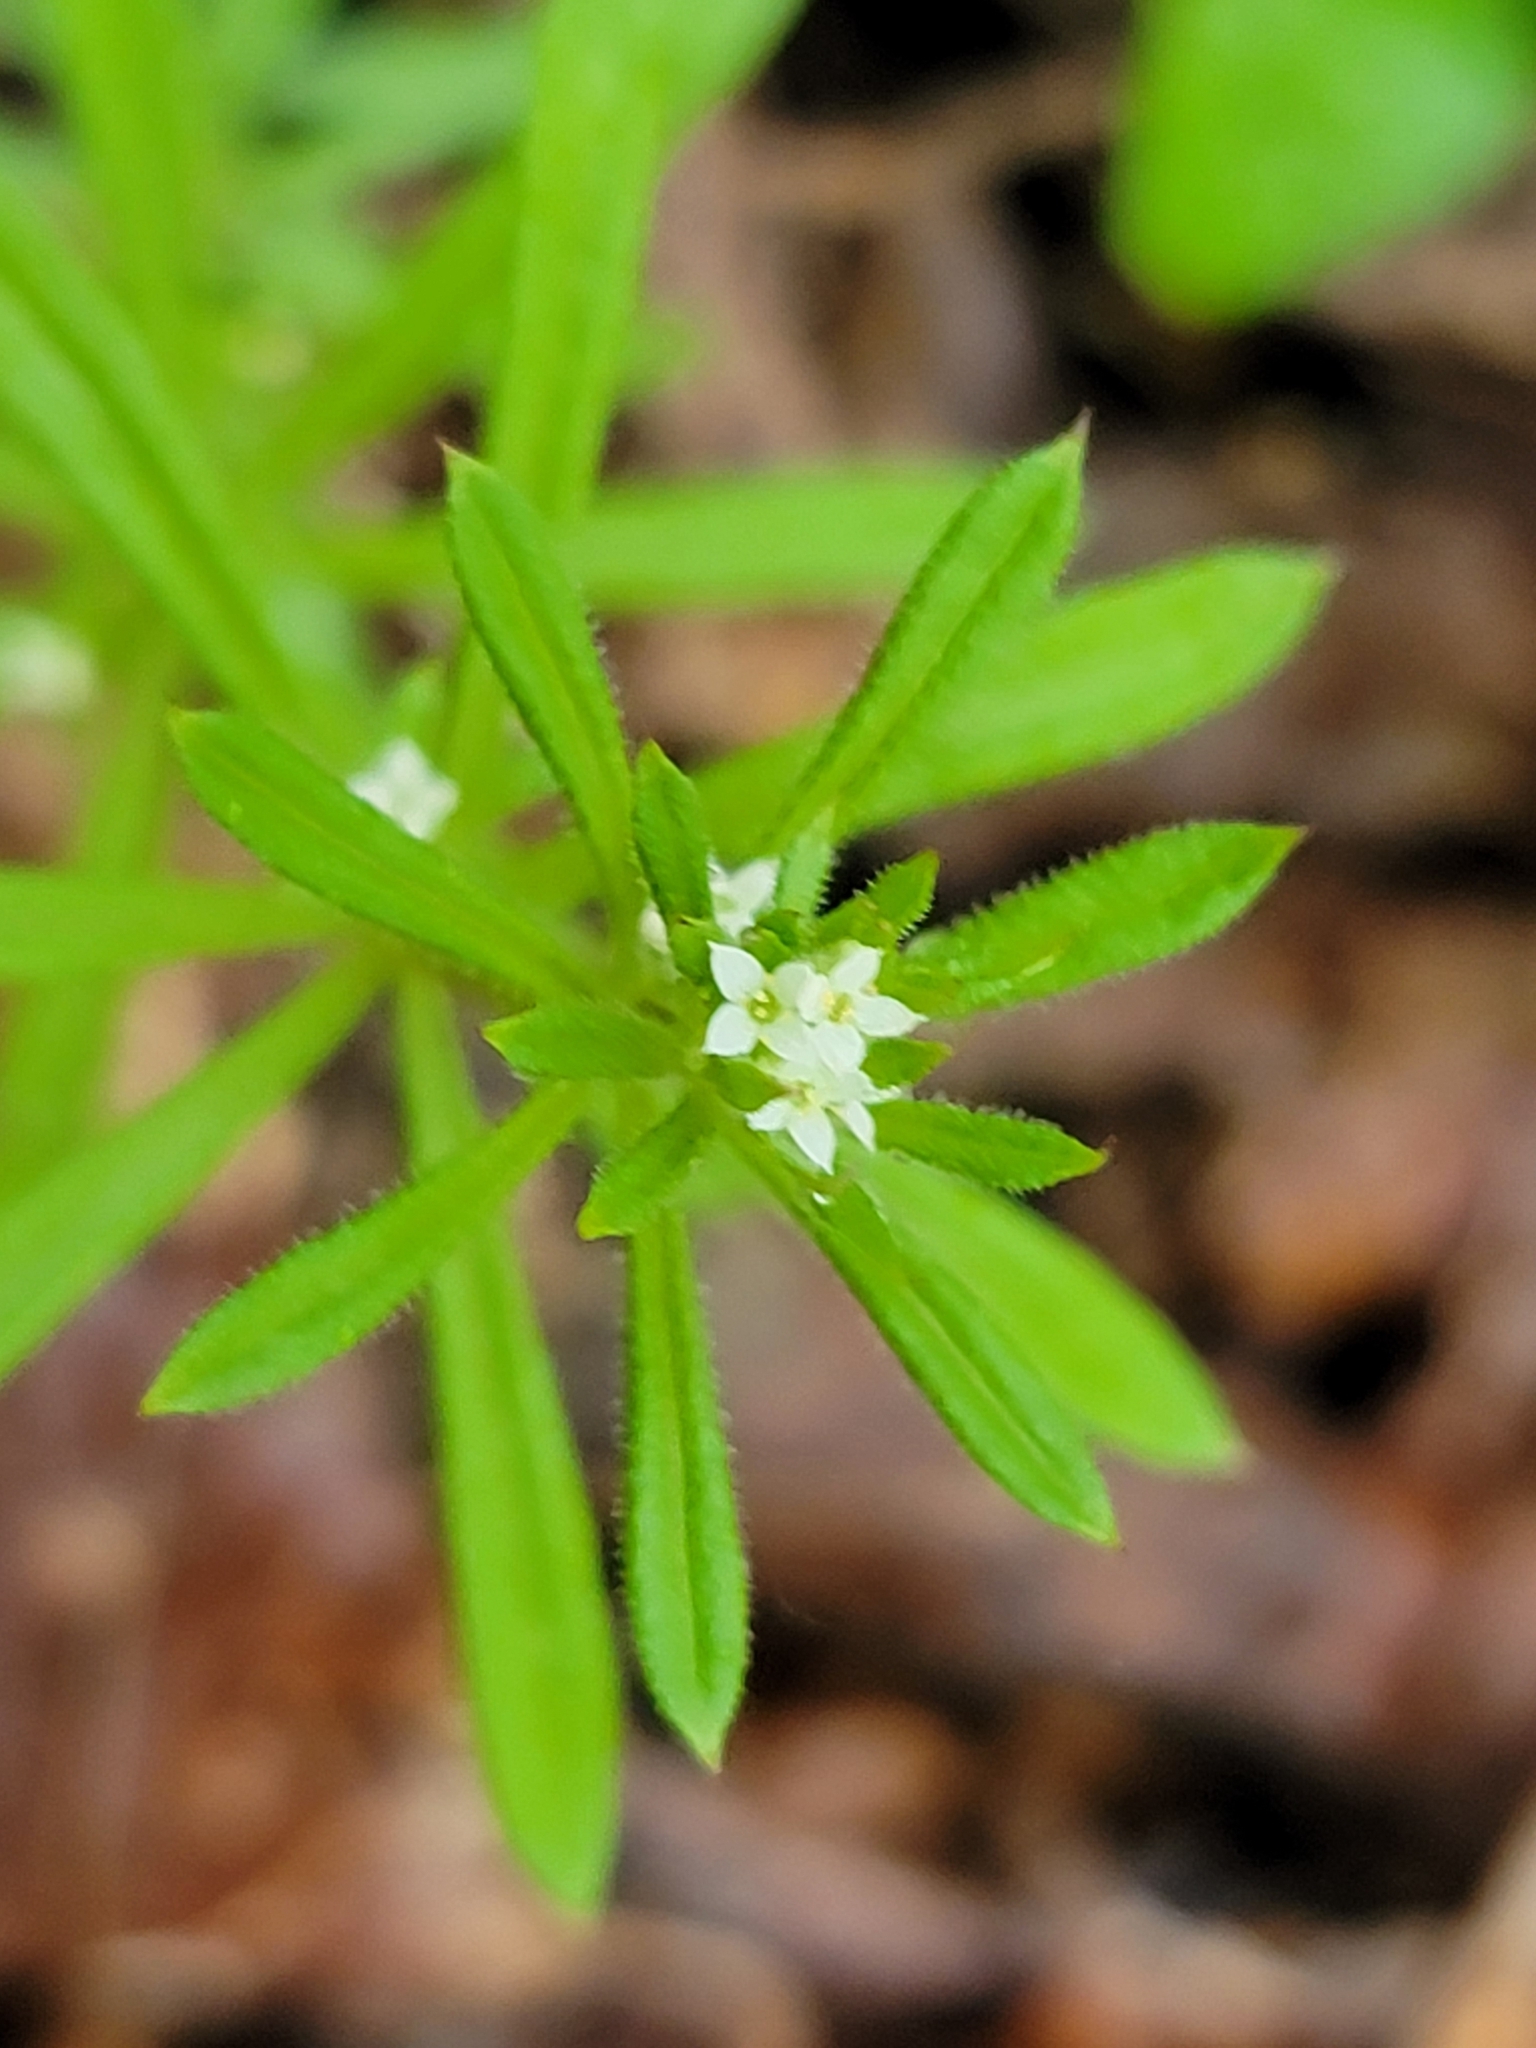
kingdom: Plantae
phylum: Tracheophyta
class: Magnoliopsida
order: Gentianales
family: Rubiaceae
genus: Galium
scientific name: Galium aparine
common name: Cleavers
